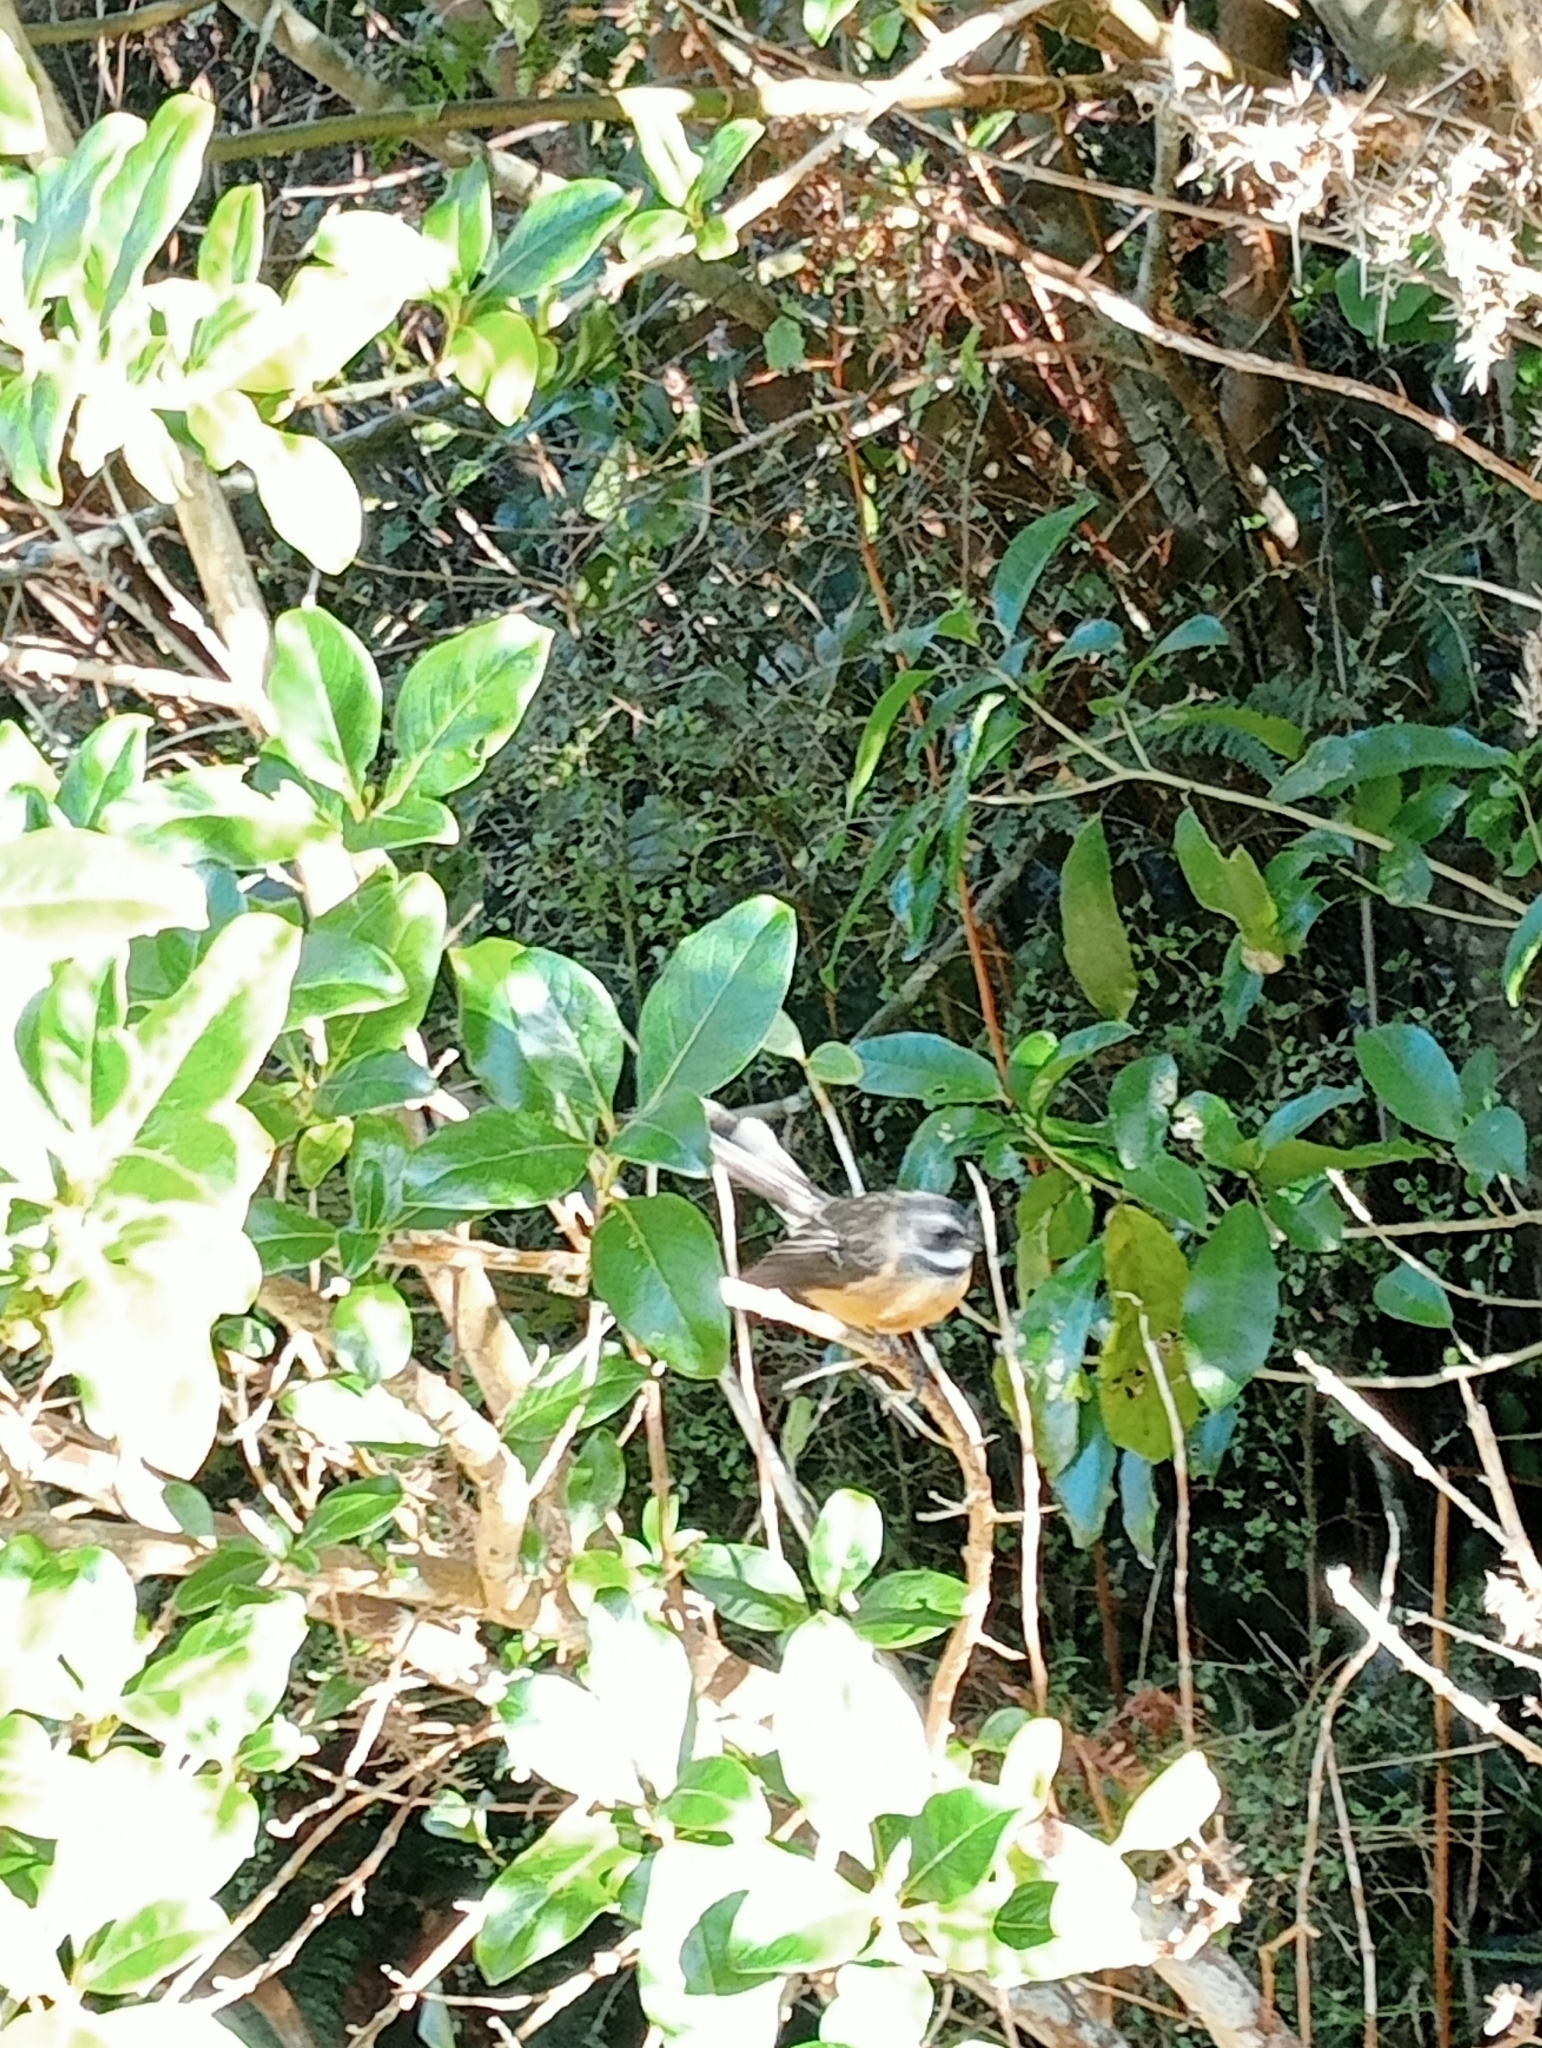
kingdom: Animalia
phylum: Chordata
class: Aves
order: Passeriformes
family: Rhipiduridae
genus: Rhipidura
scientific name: Rhipidura fuliginosa
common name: New zealand fantail
